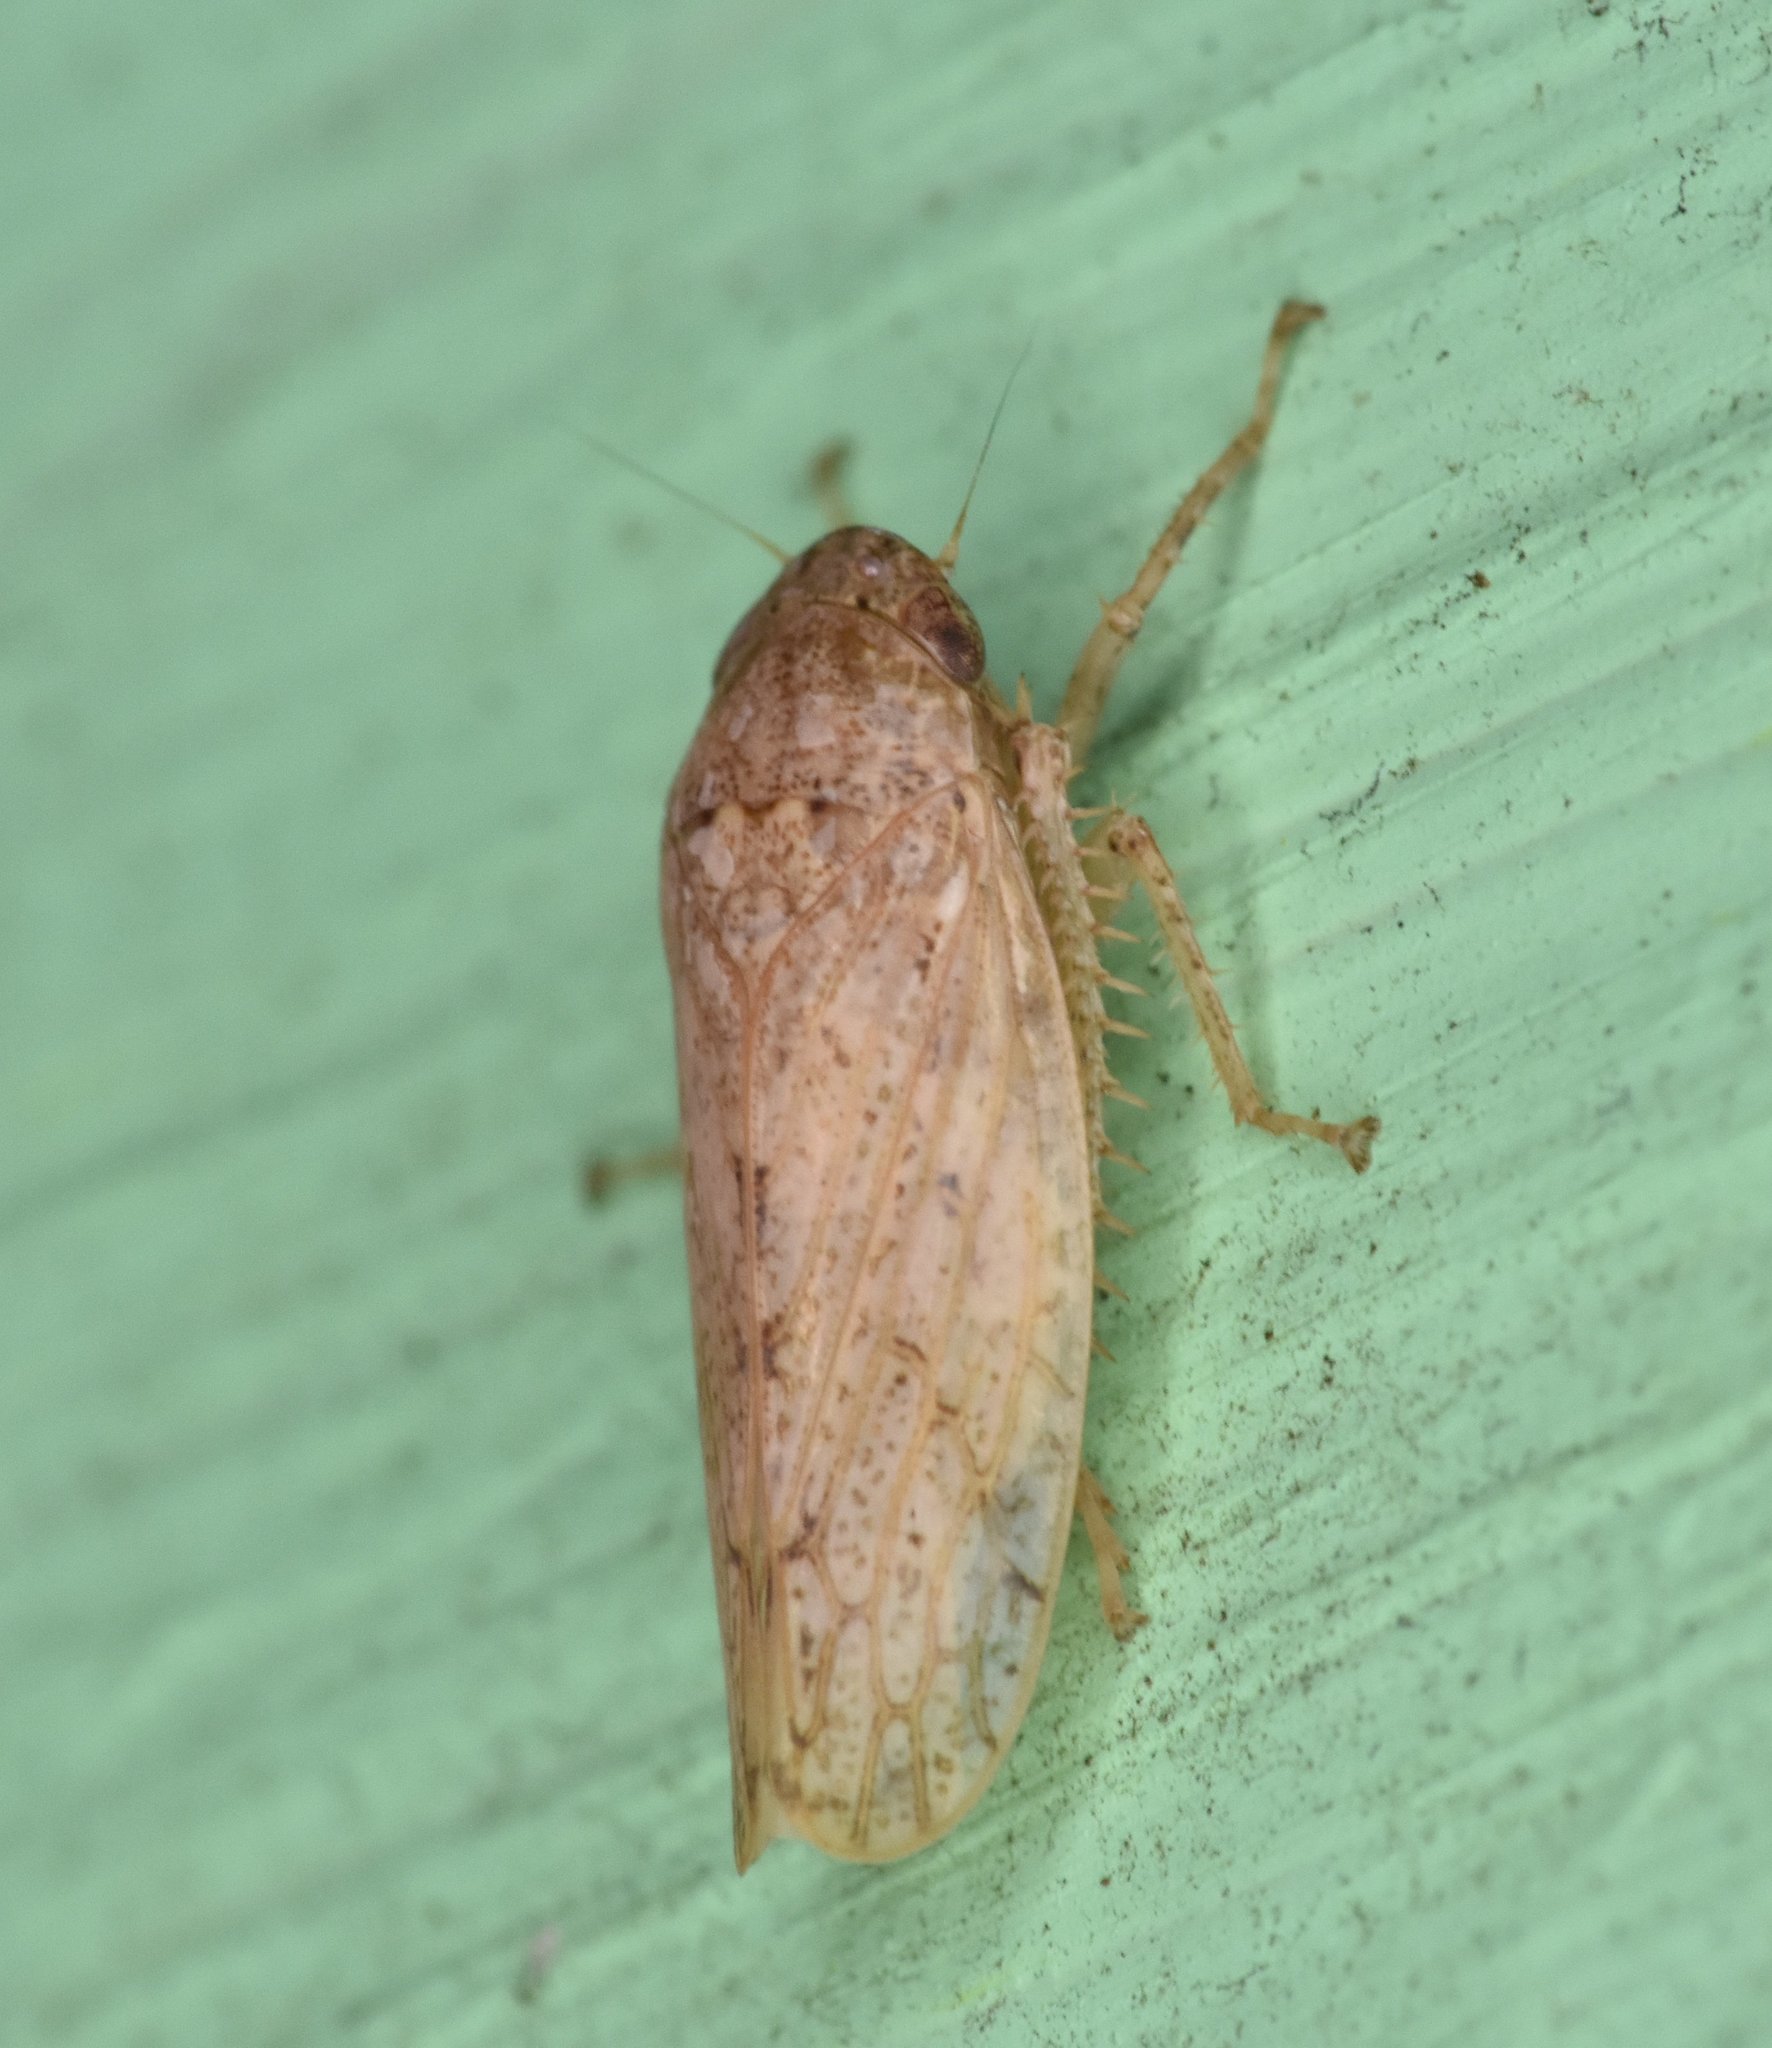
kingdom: Animalia
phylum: Arthropoda
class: Insecta
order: Hemiptera
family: Cicadellidae
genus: Curtara
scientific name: Curtara insularis
